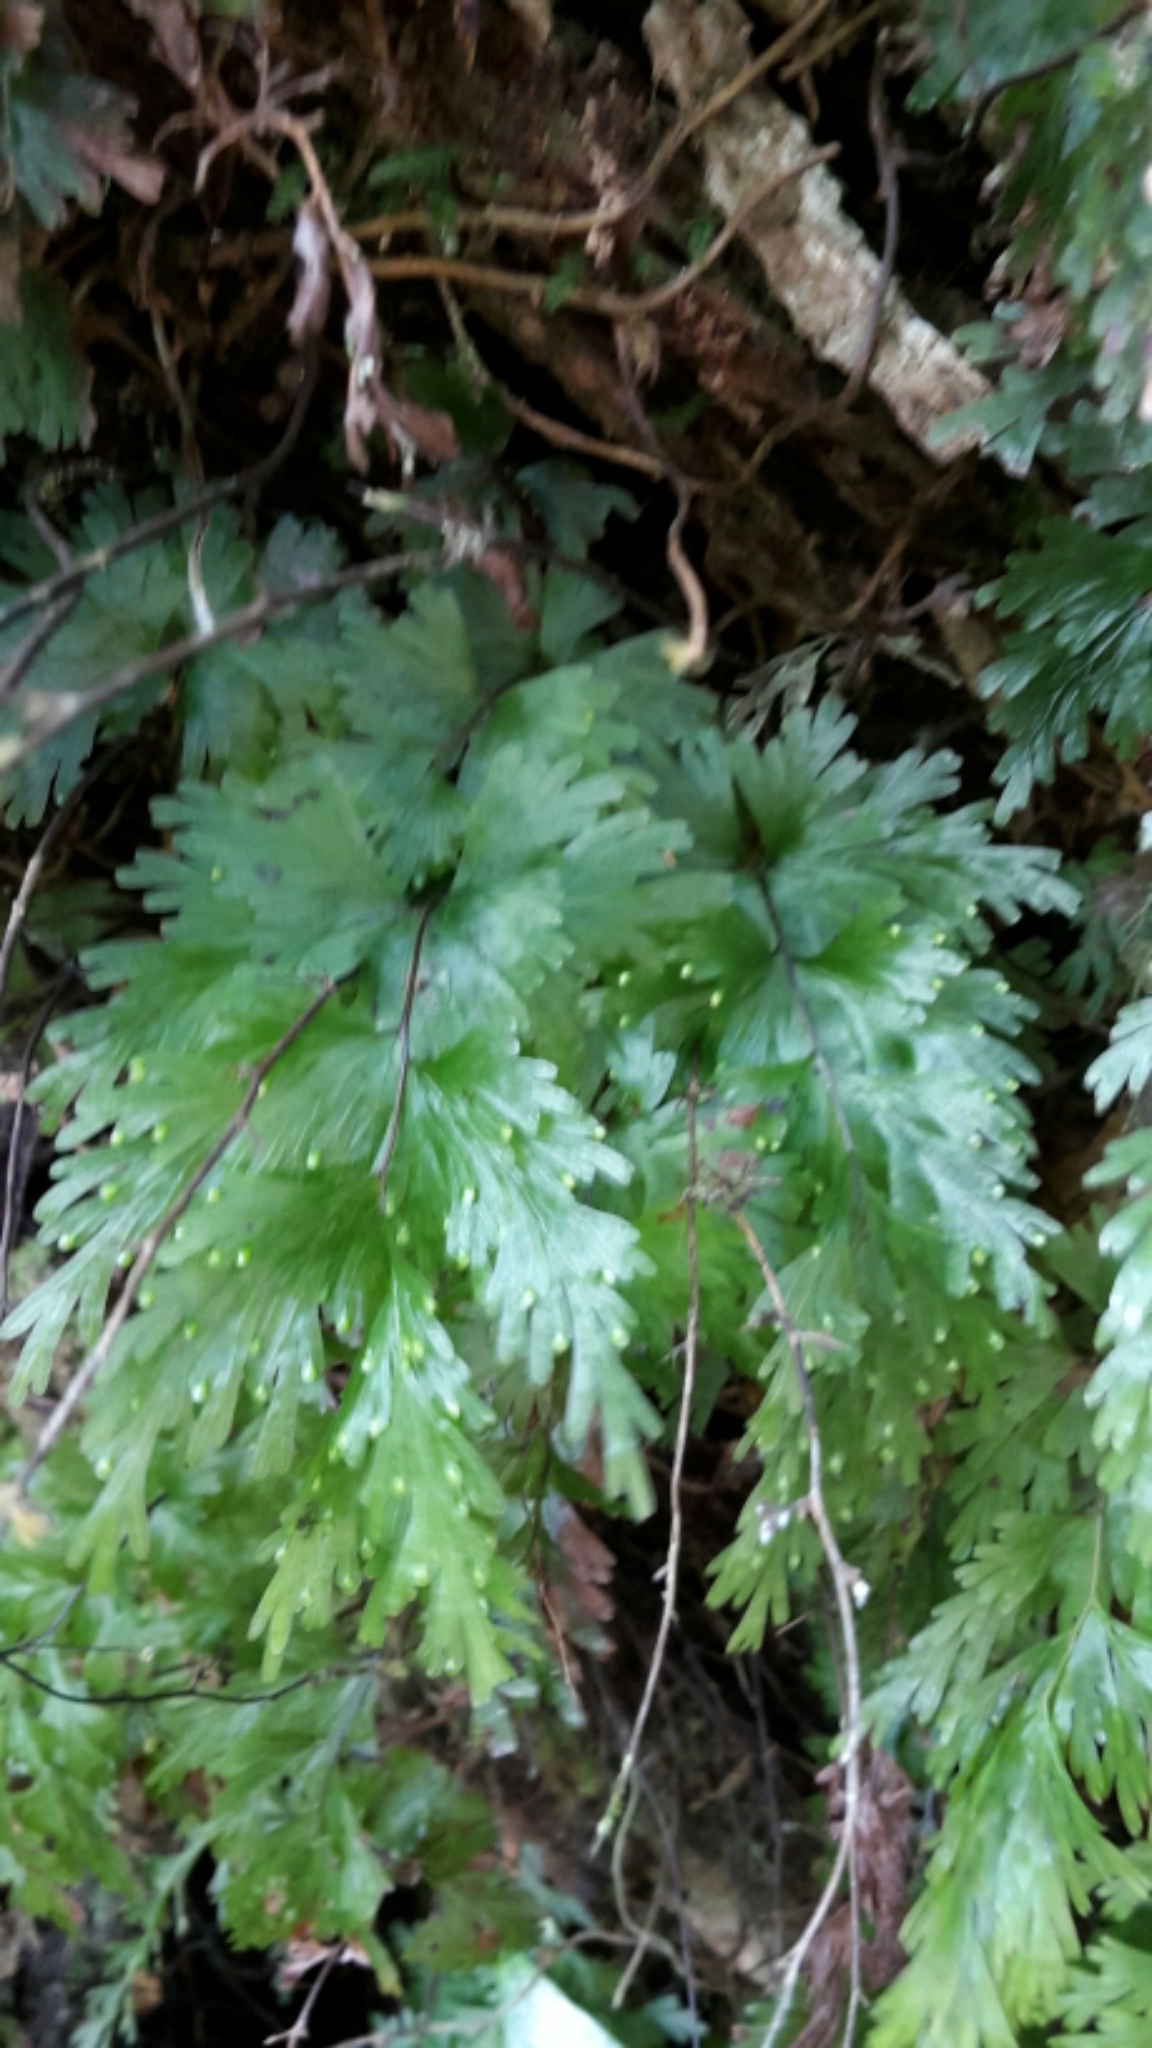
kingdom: Plantae
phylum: Tracheophyta
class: Polypodiopsida
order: Hymenophyllales
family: Hymenophyllaceae
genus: Hymenophyllum
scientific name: Hymenophyllum flabellatum
